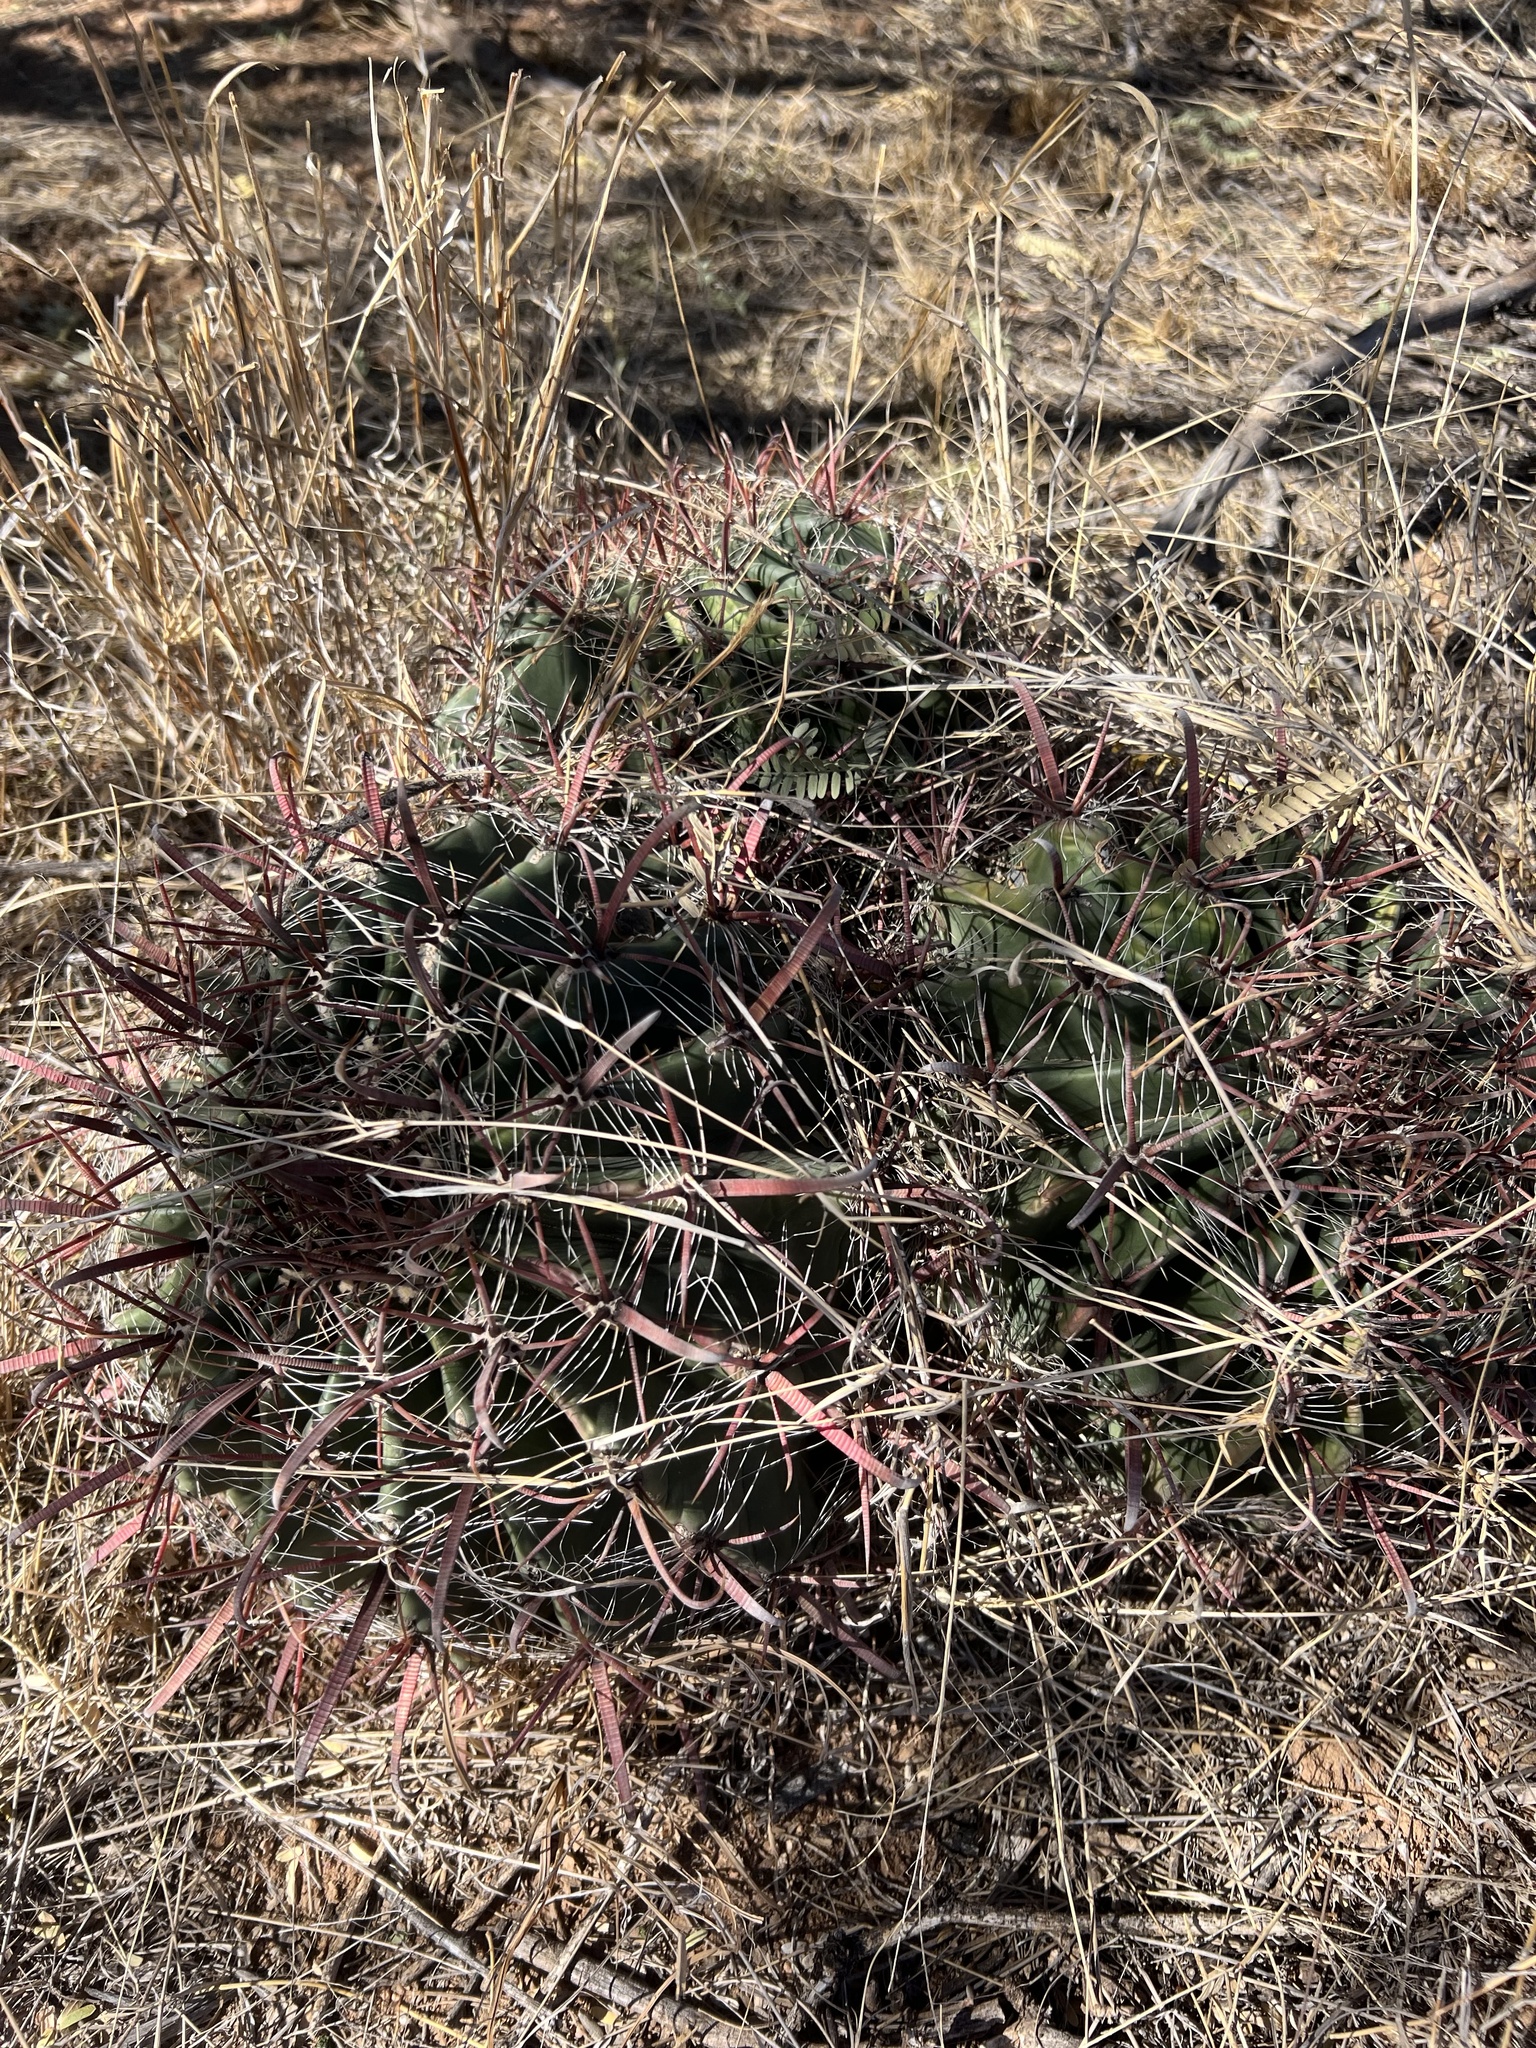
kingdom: Plantae
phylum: Tracheophyta
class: Magnoliopsida
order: Caryophyllales
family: Cactaceae
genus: Ferocactus
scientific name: Ferocactus wislizeni
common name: Candy barrel cactus
